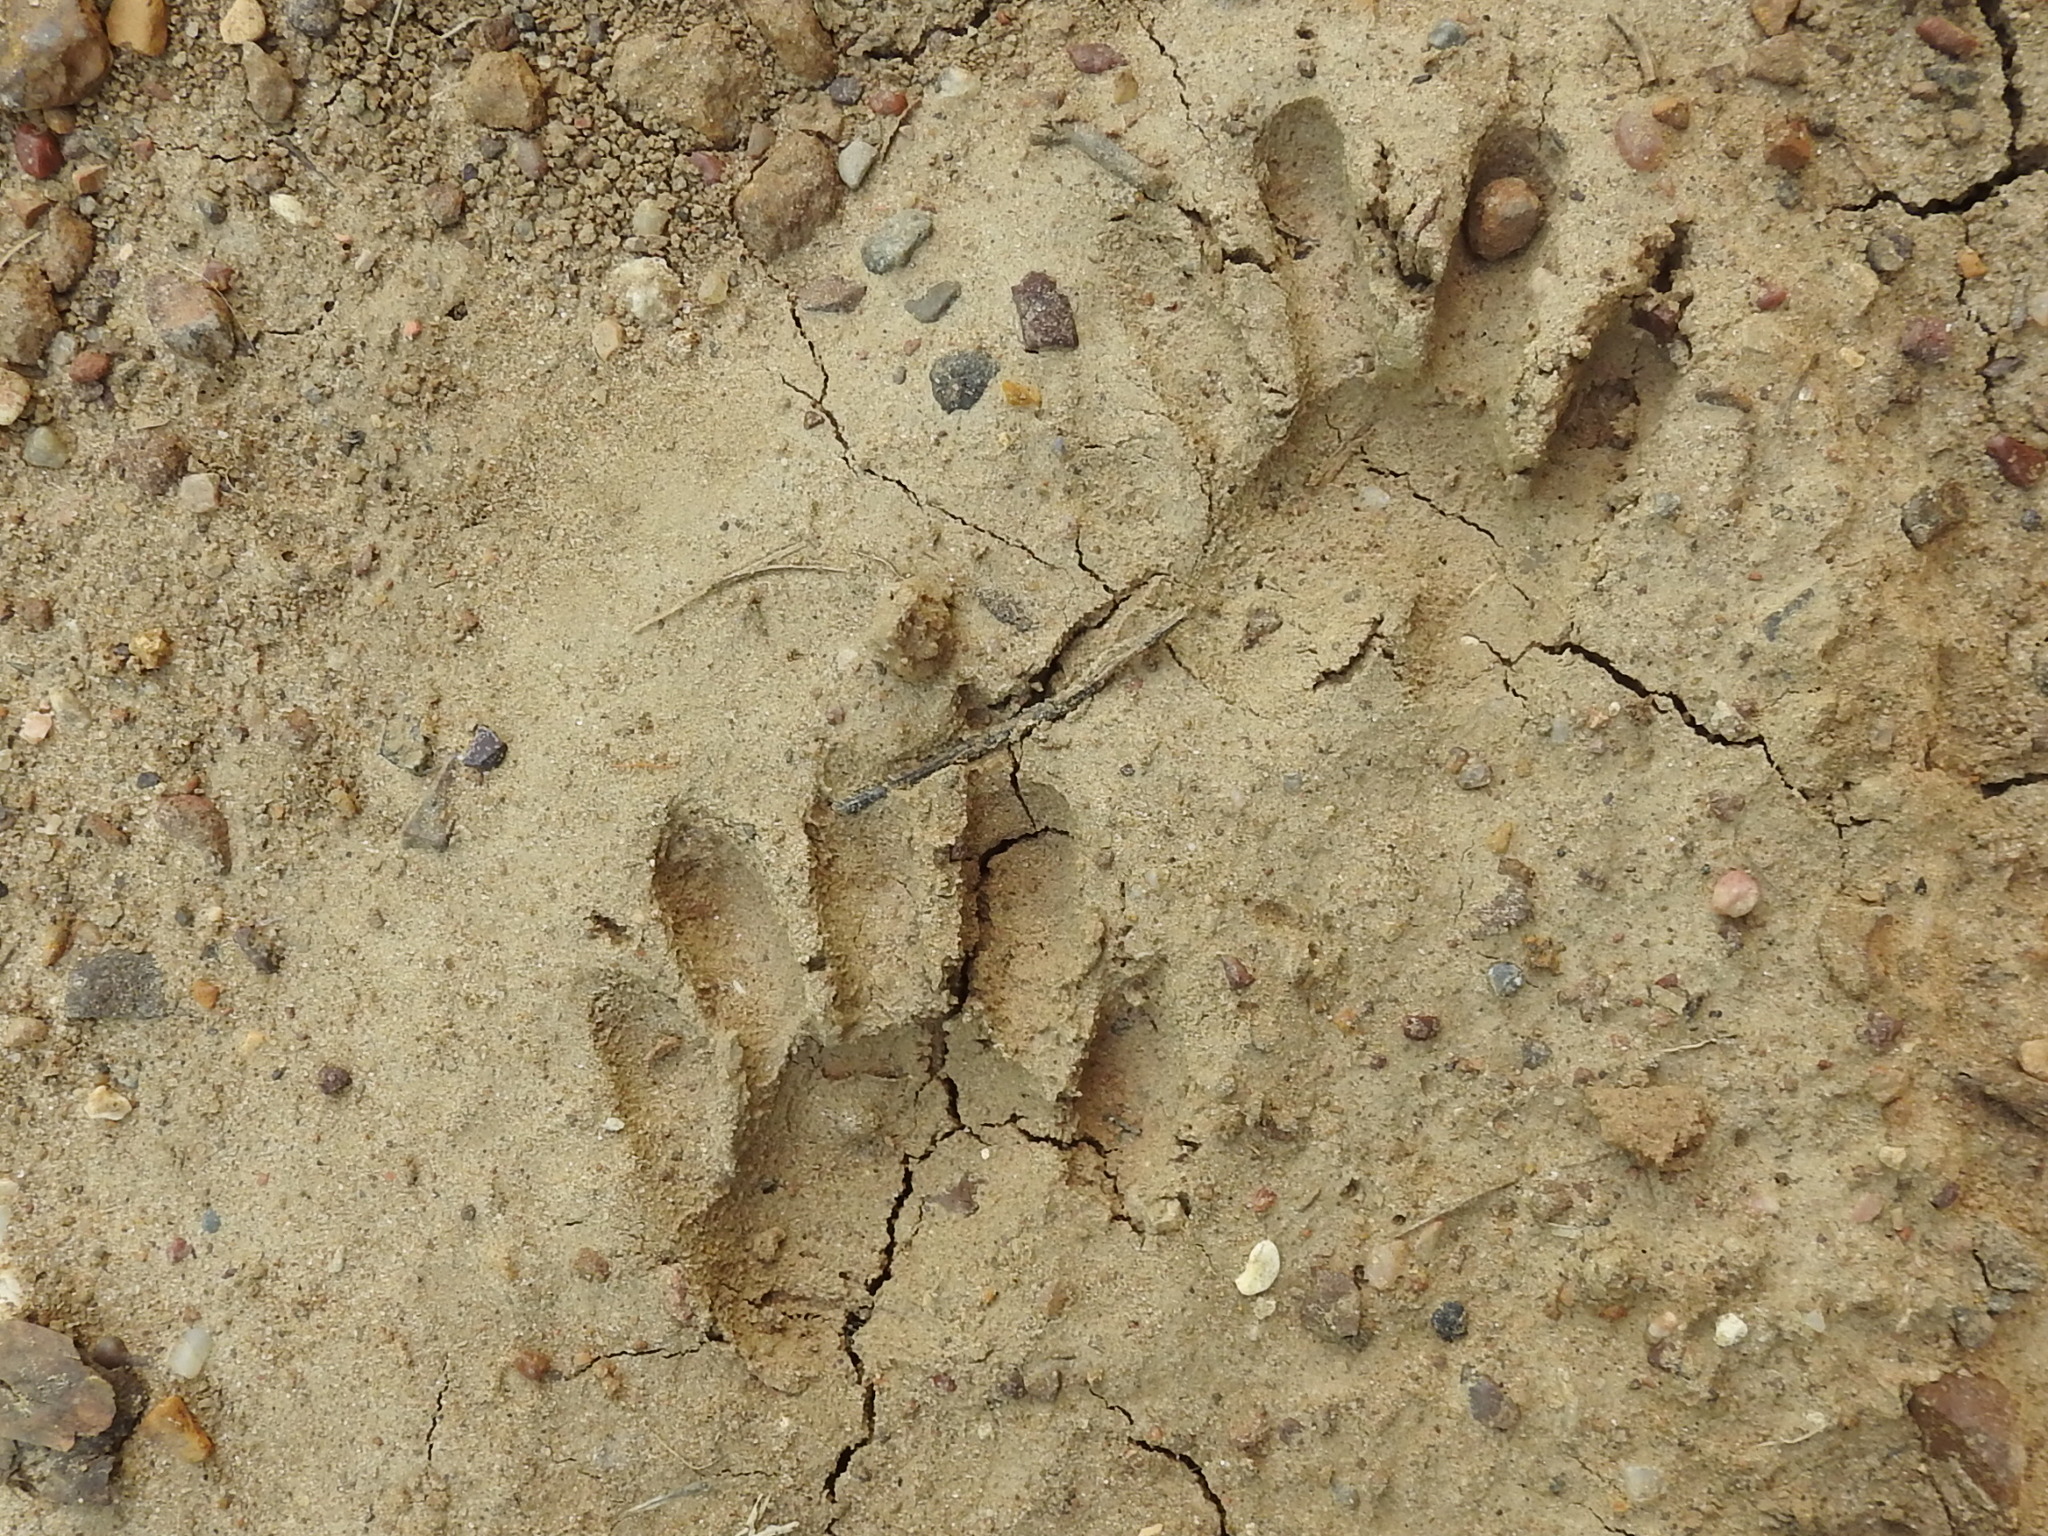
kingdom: Animalia
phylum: Chordata
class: Mammalia
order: Carnivora
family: Procyonidae
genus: Procyon
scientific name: Procyon lotor
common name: Raccoon
